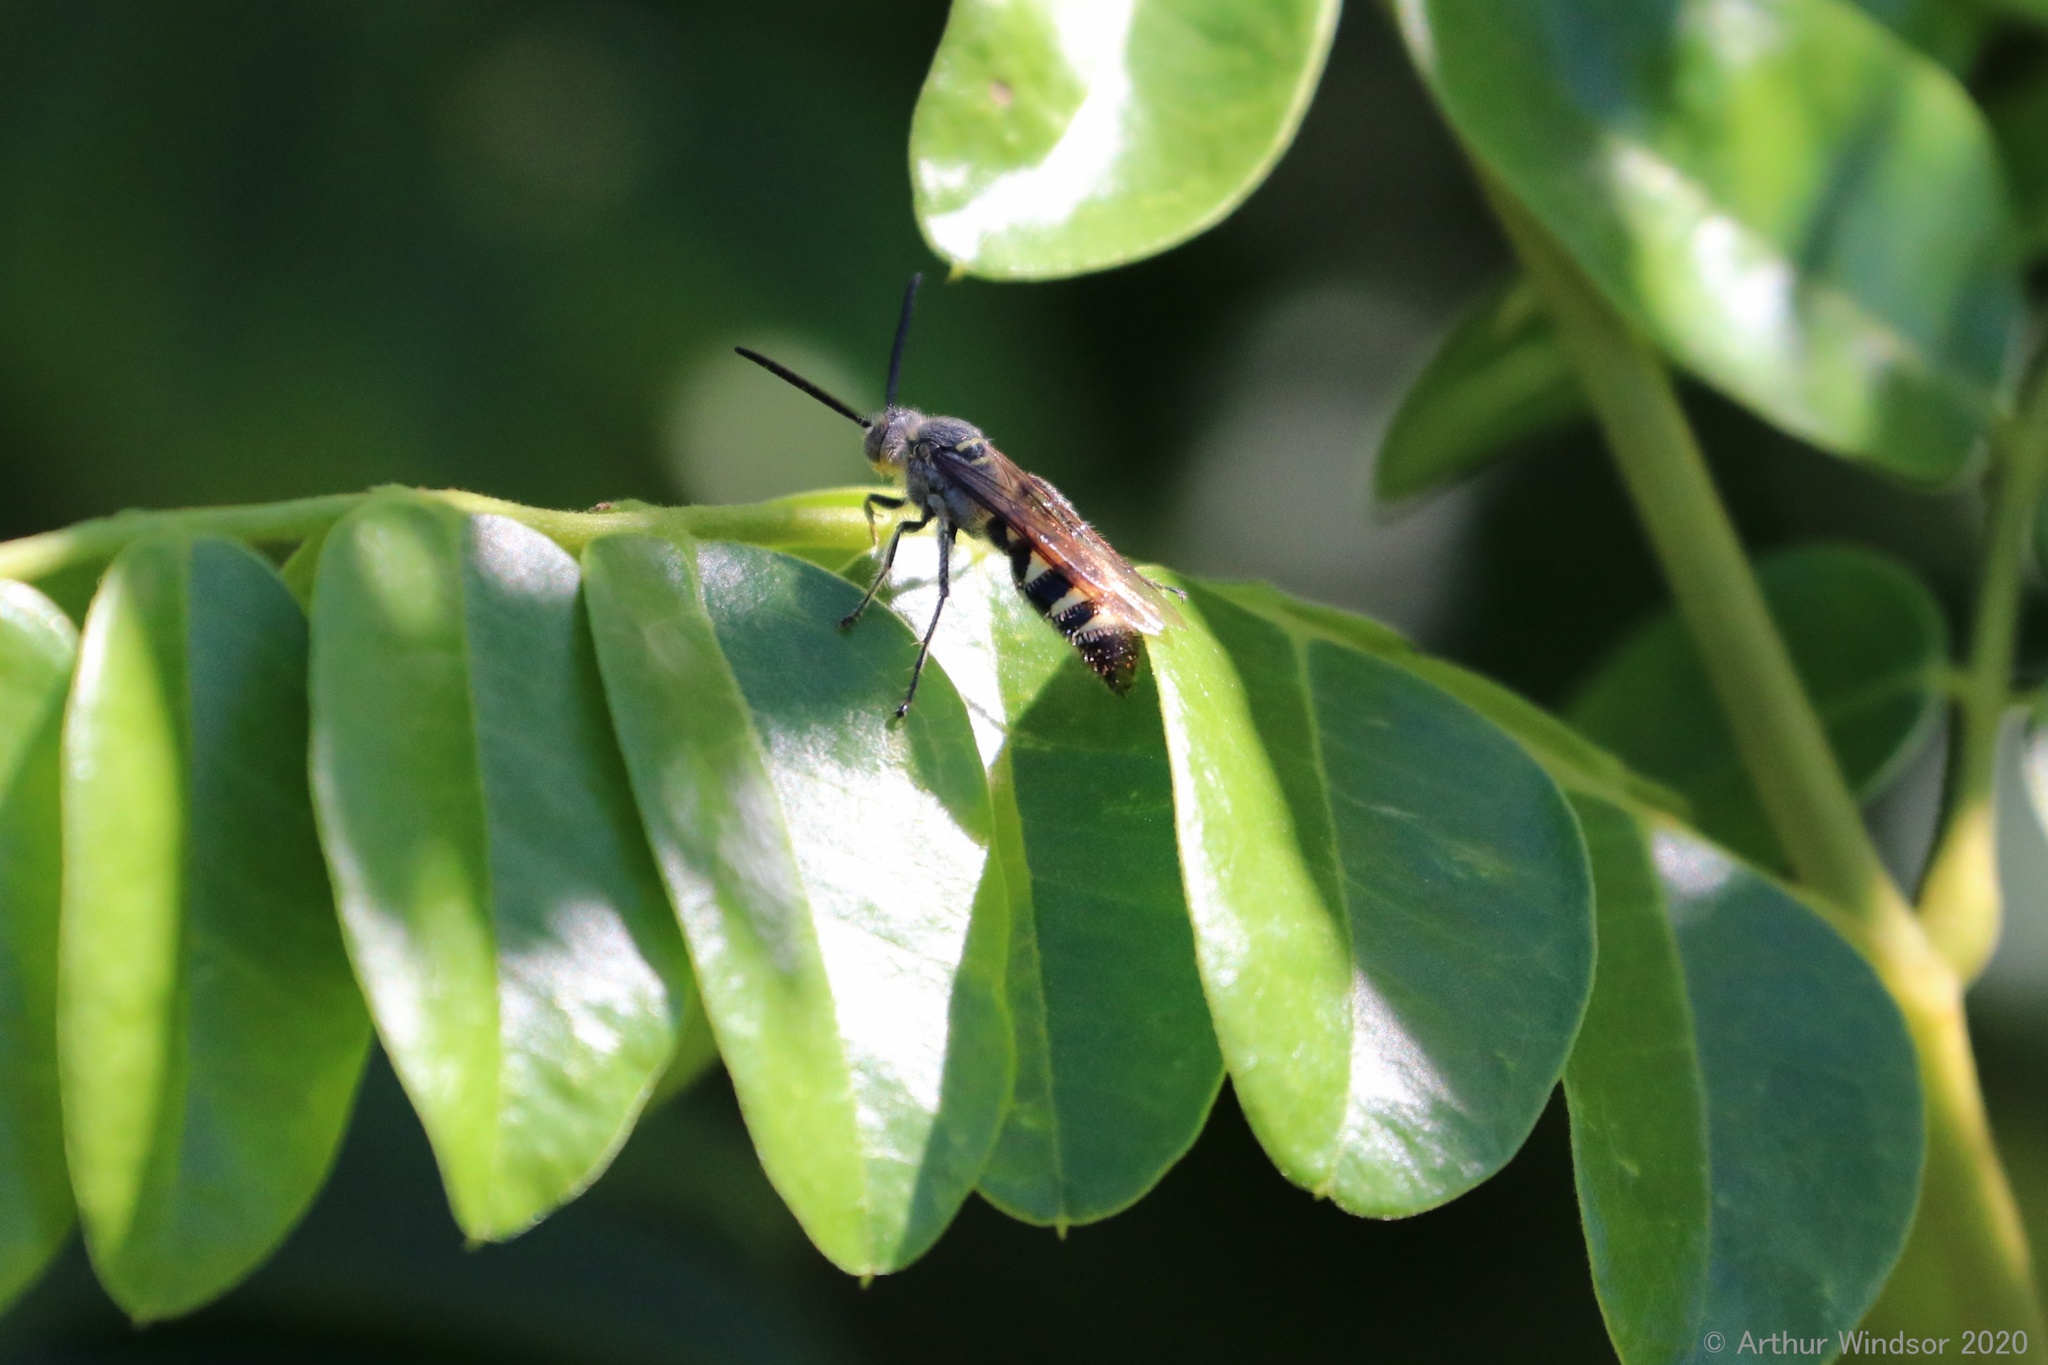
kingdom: Animalia
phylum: Arthropoda
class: Insecta
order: Hymenoptera
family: Scoliidae
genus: Dielis
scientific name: Dielis dorsata
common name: Scoliid wasp
